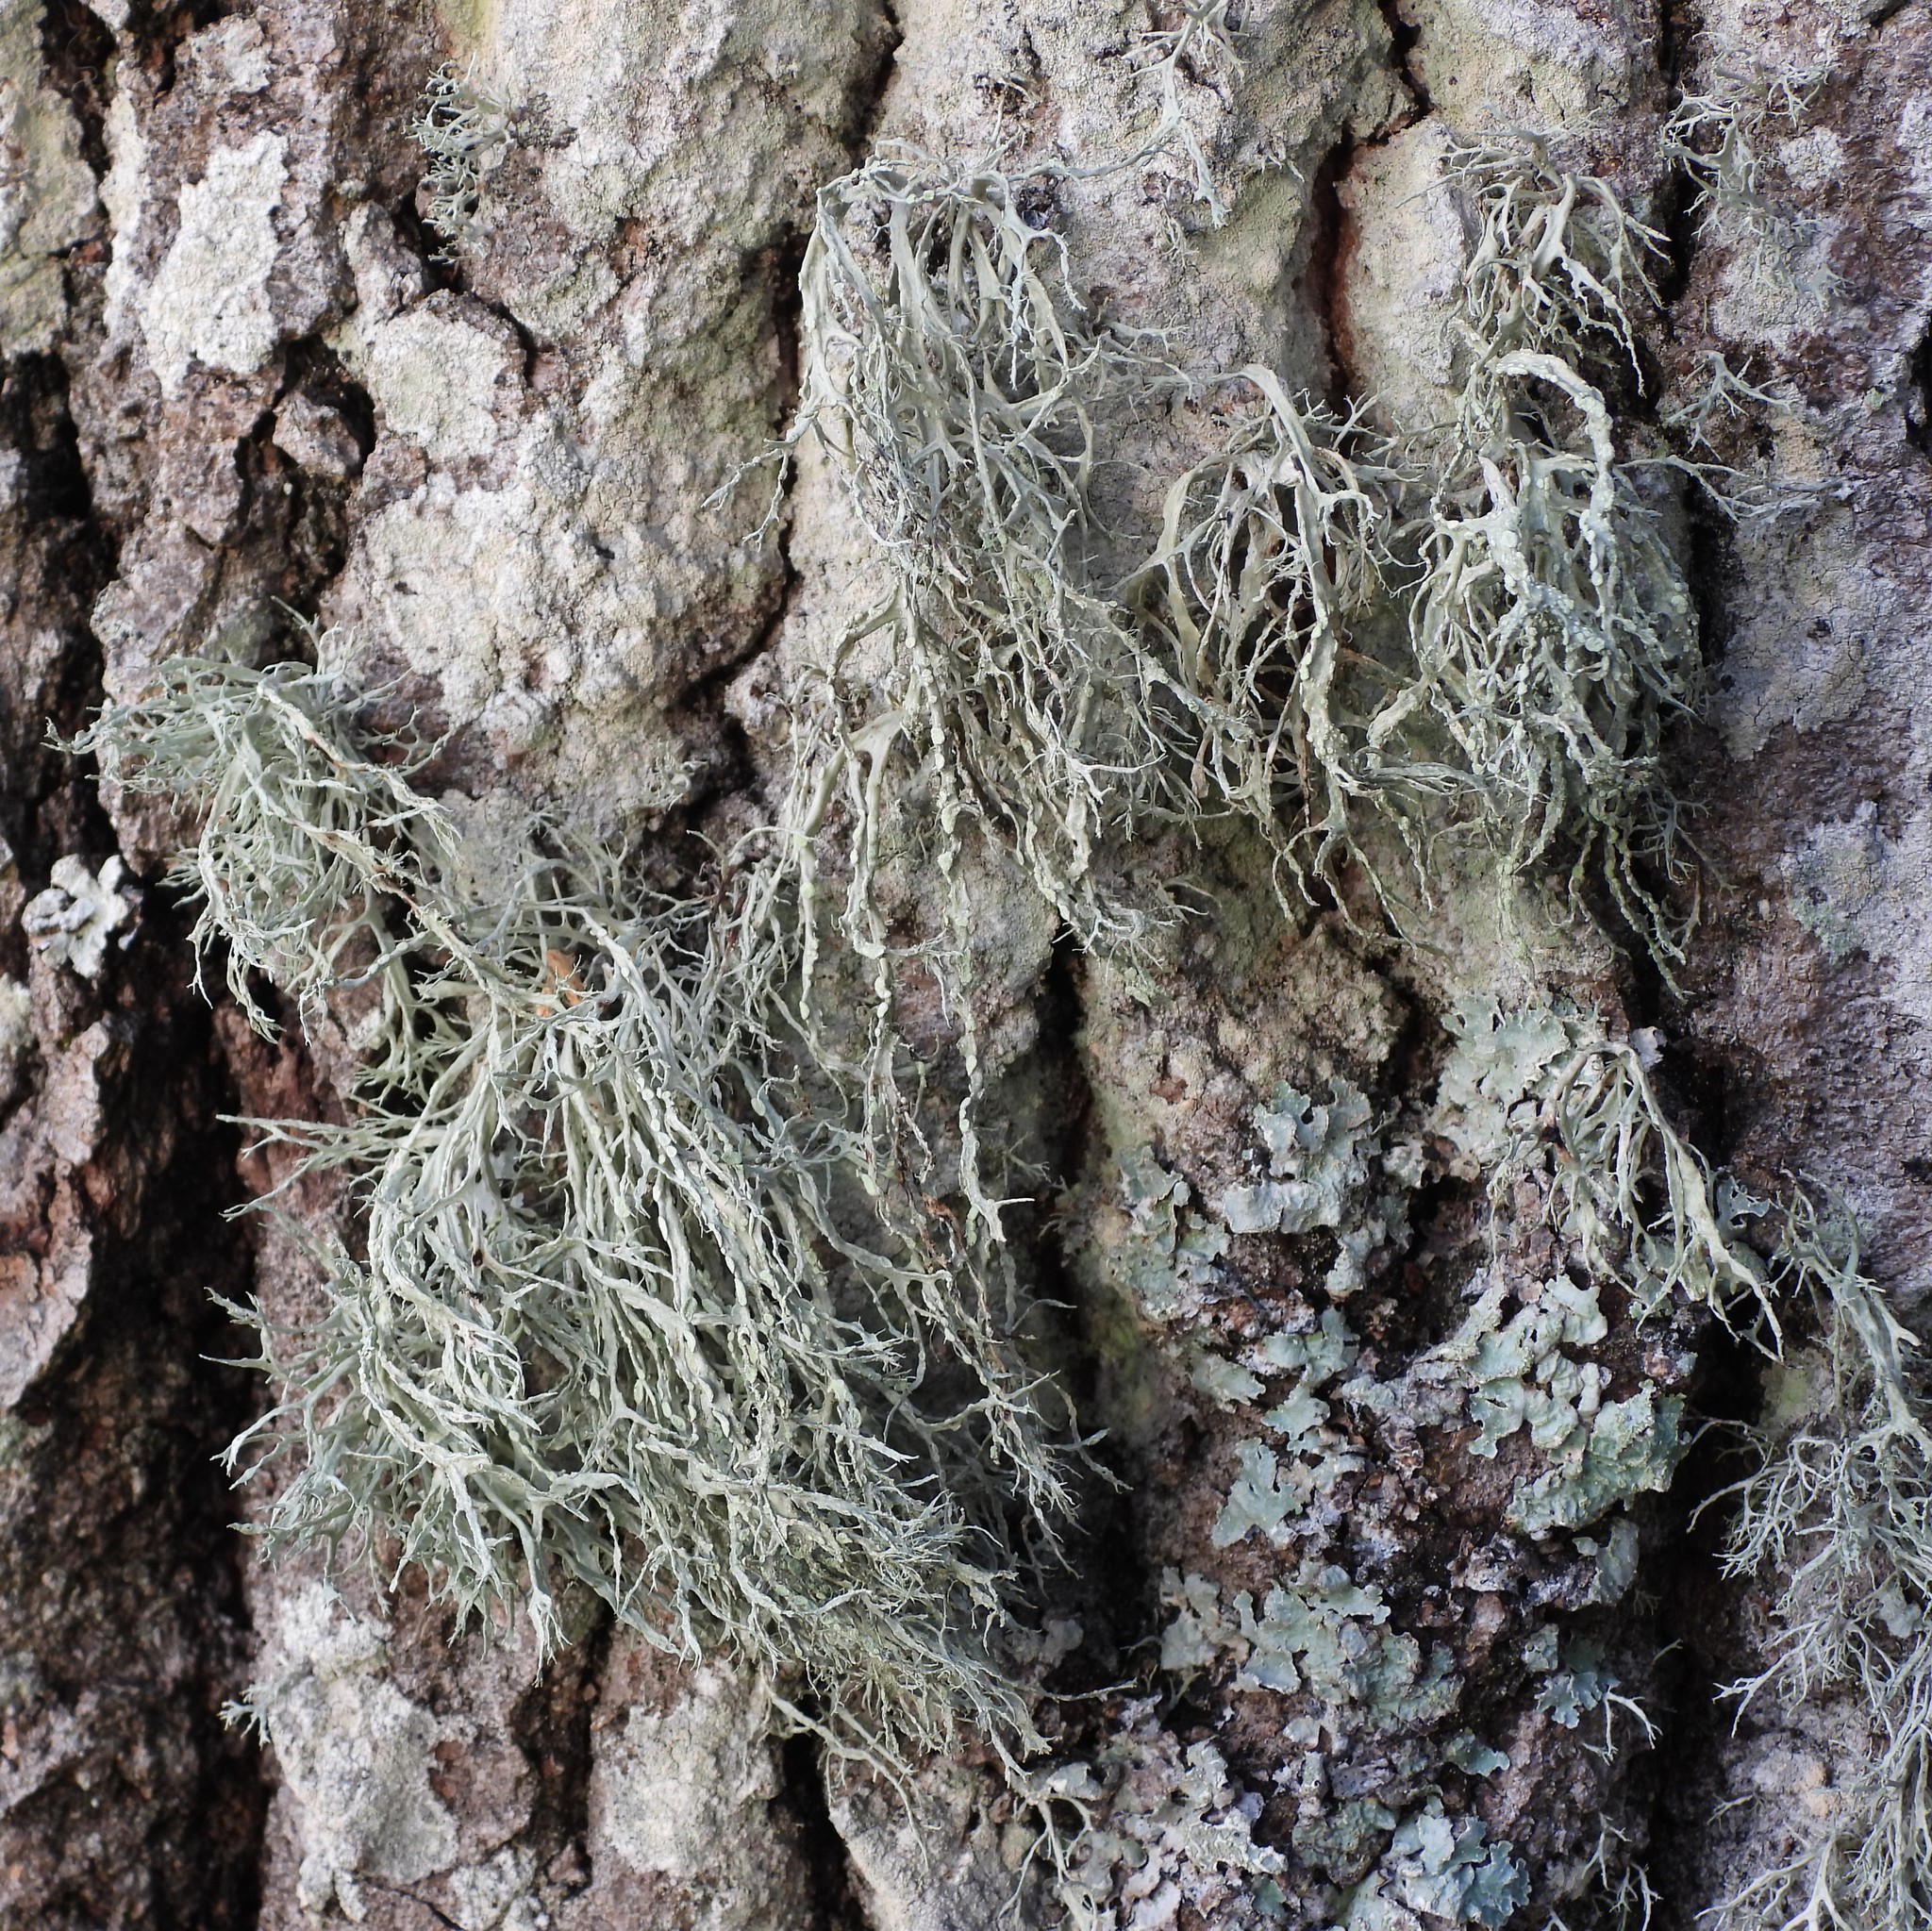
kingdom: Fungi
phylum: Ascomycota
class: Lecanoromycetes
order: Lecanorales
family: Ramalinaceae
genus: Ramalina
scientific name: Ramalina farinacea
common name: Farinose cartilage lichen
